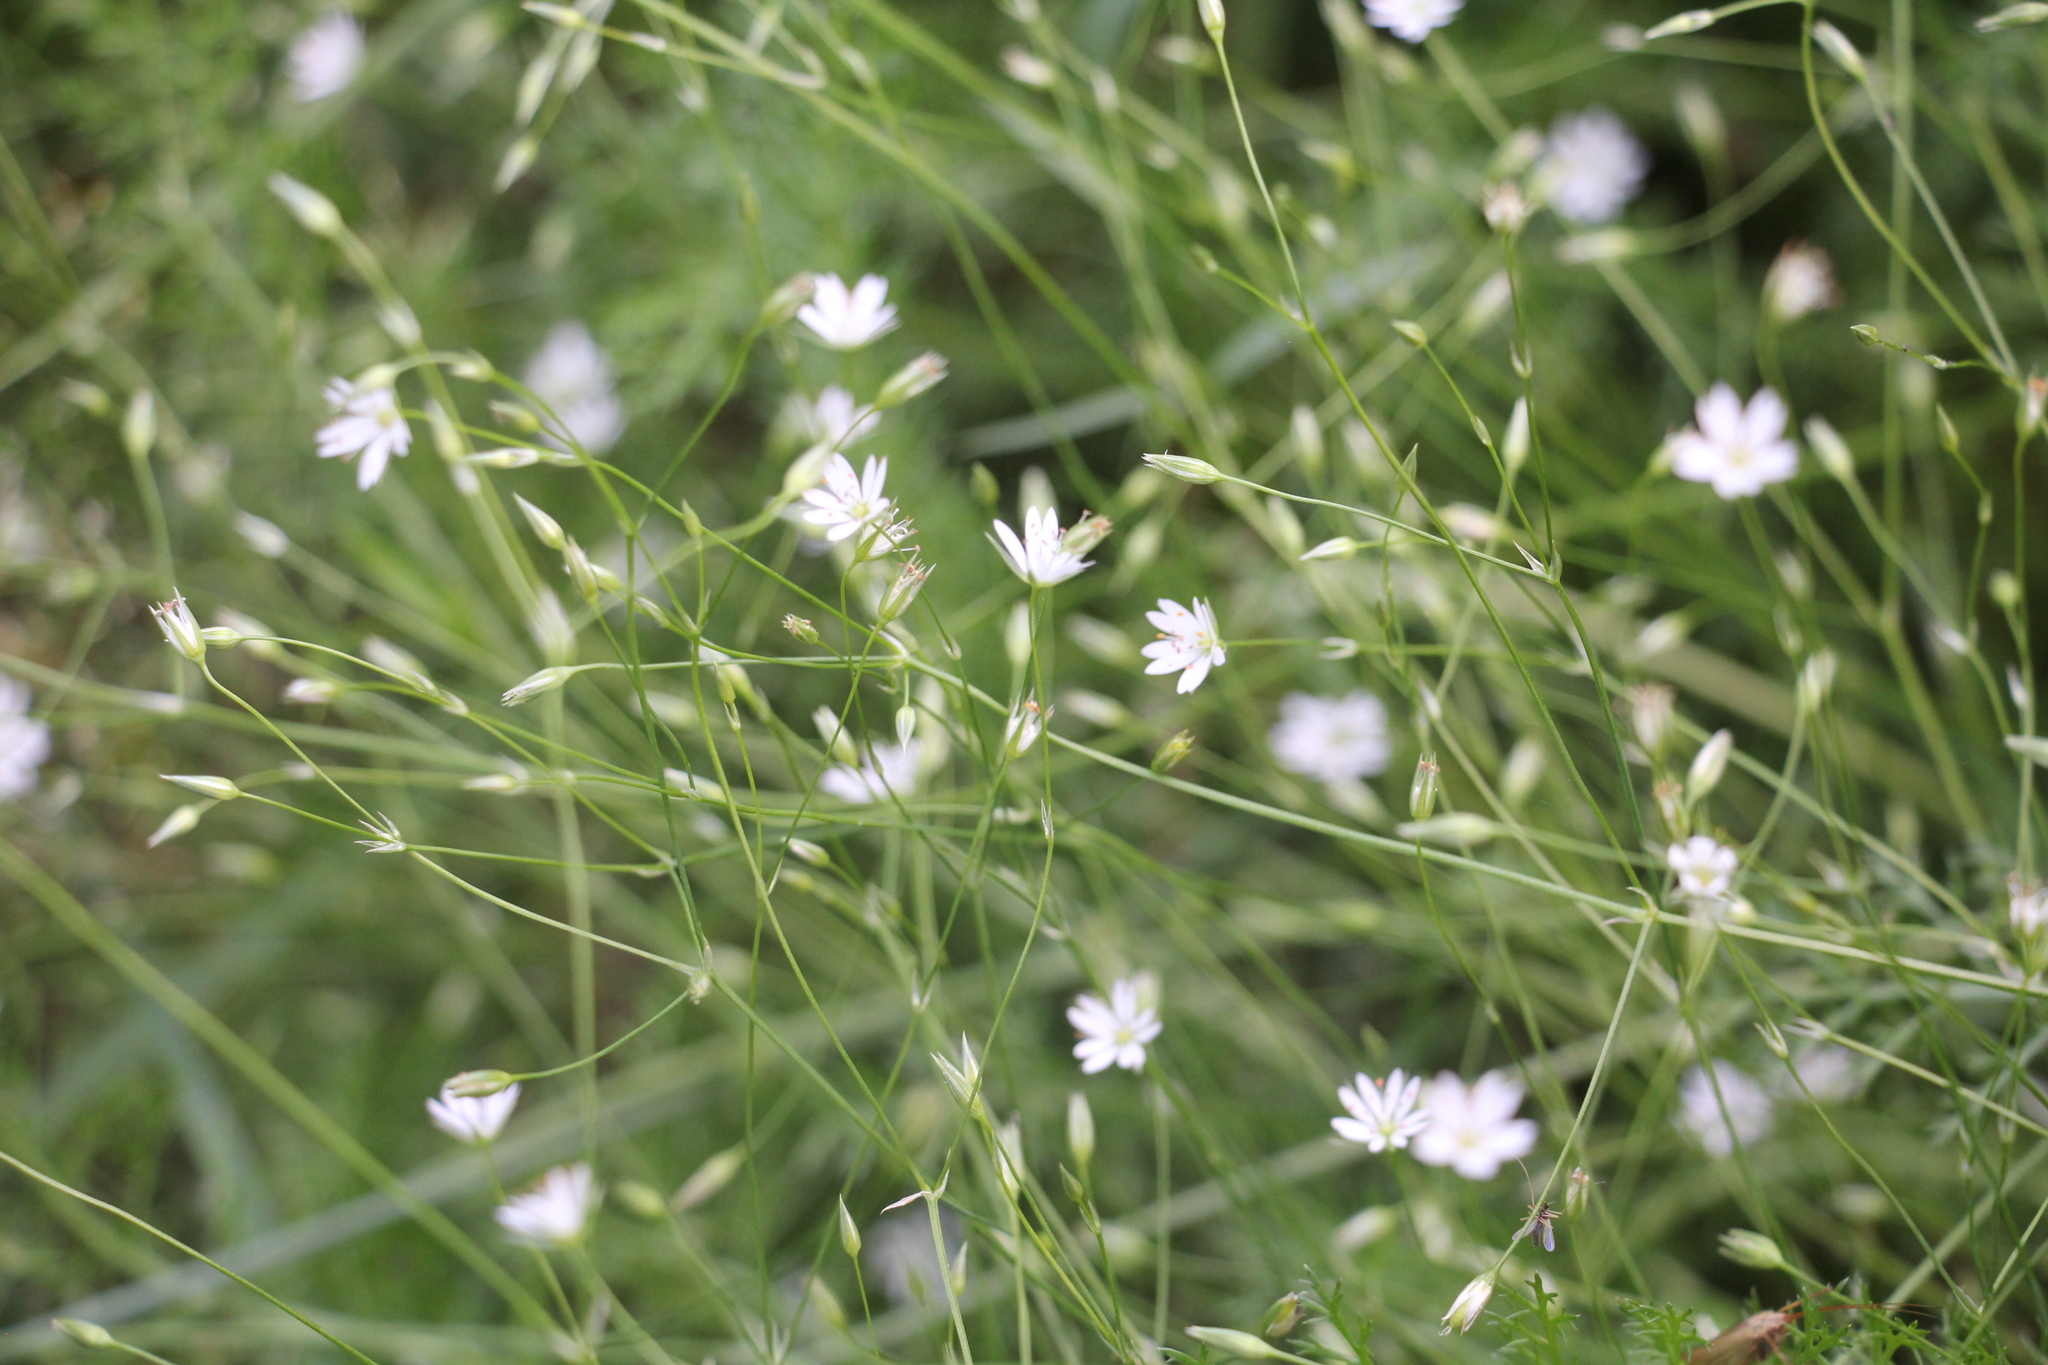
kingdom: Plantae
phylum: Tracheophyta
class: Magnoliopsida
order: Caryophyllales
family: Caryophyllaceae
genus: Stellaria
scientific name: Stellaria graminea
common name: Grass-like starwort
